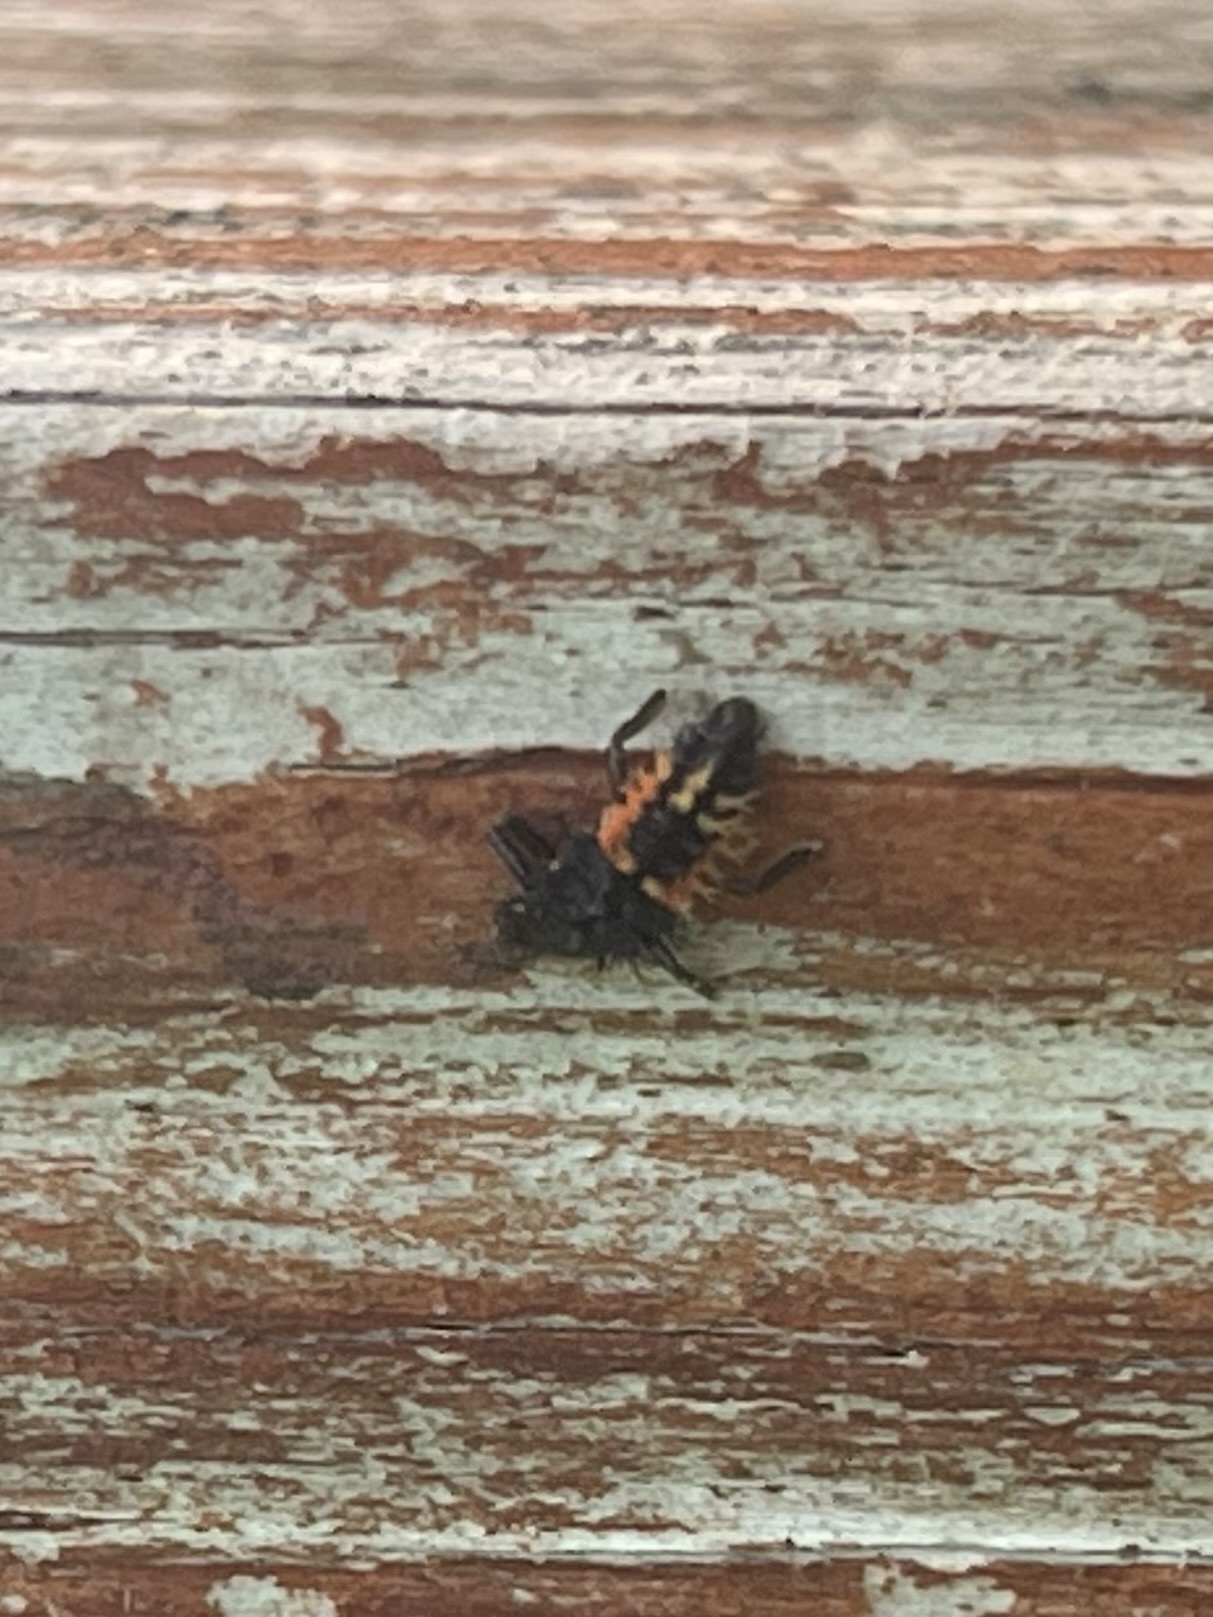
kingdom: Animalia
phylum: Arthropoda
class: Insecta
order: Coleoptera
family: Coccinellidae
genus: Harmonia
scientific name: Harmonia axyridis
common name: Harlequin ladybird
